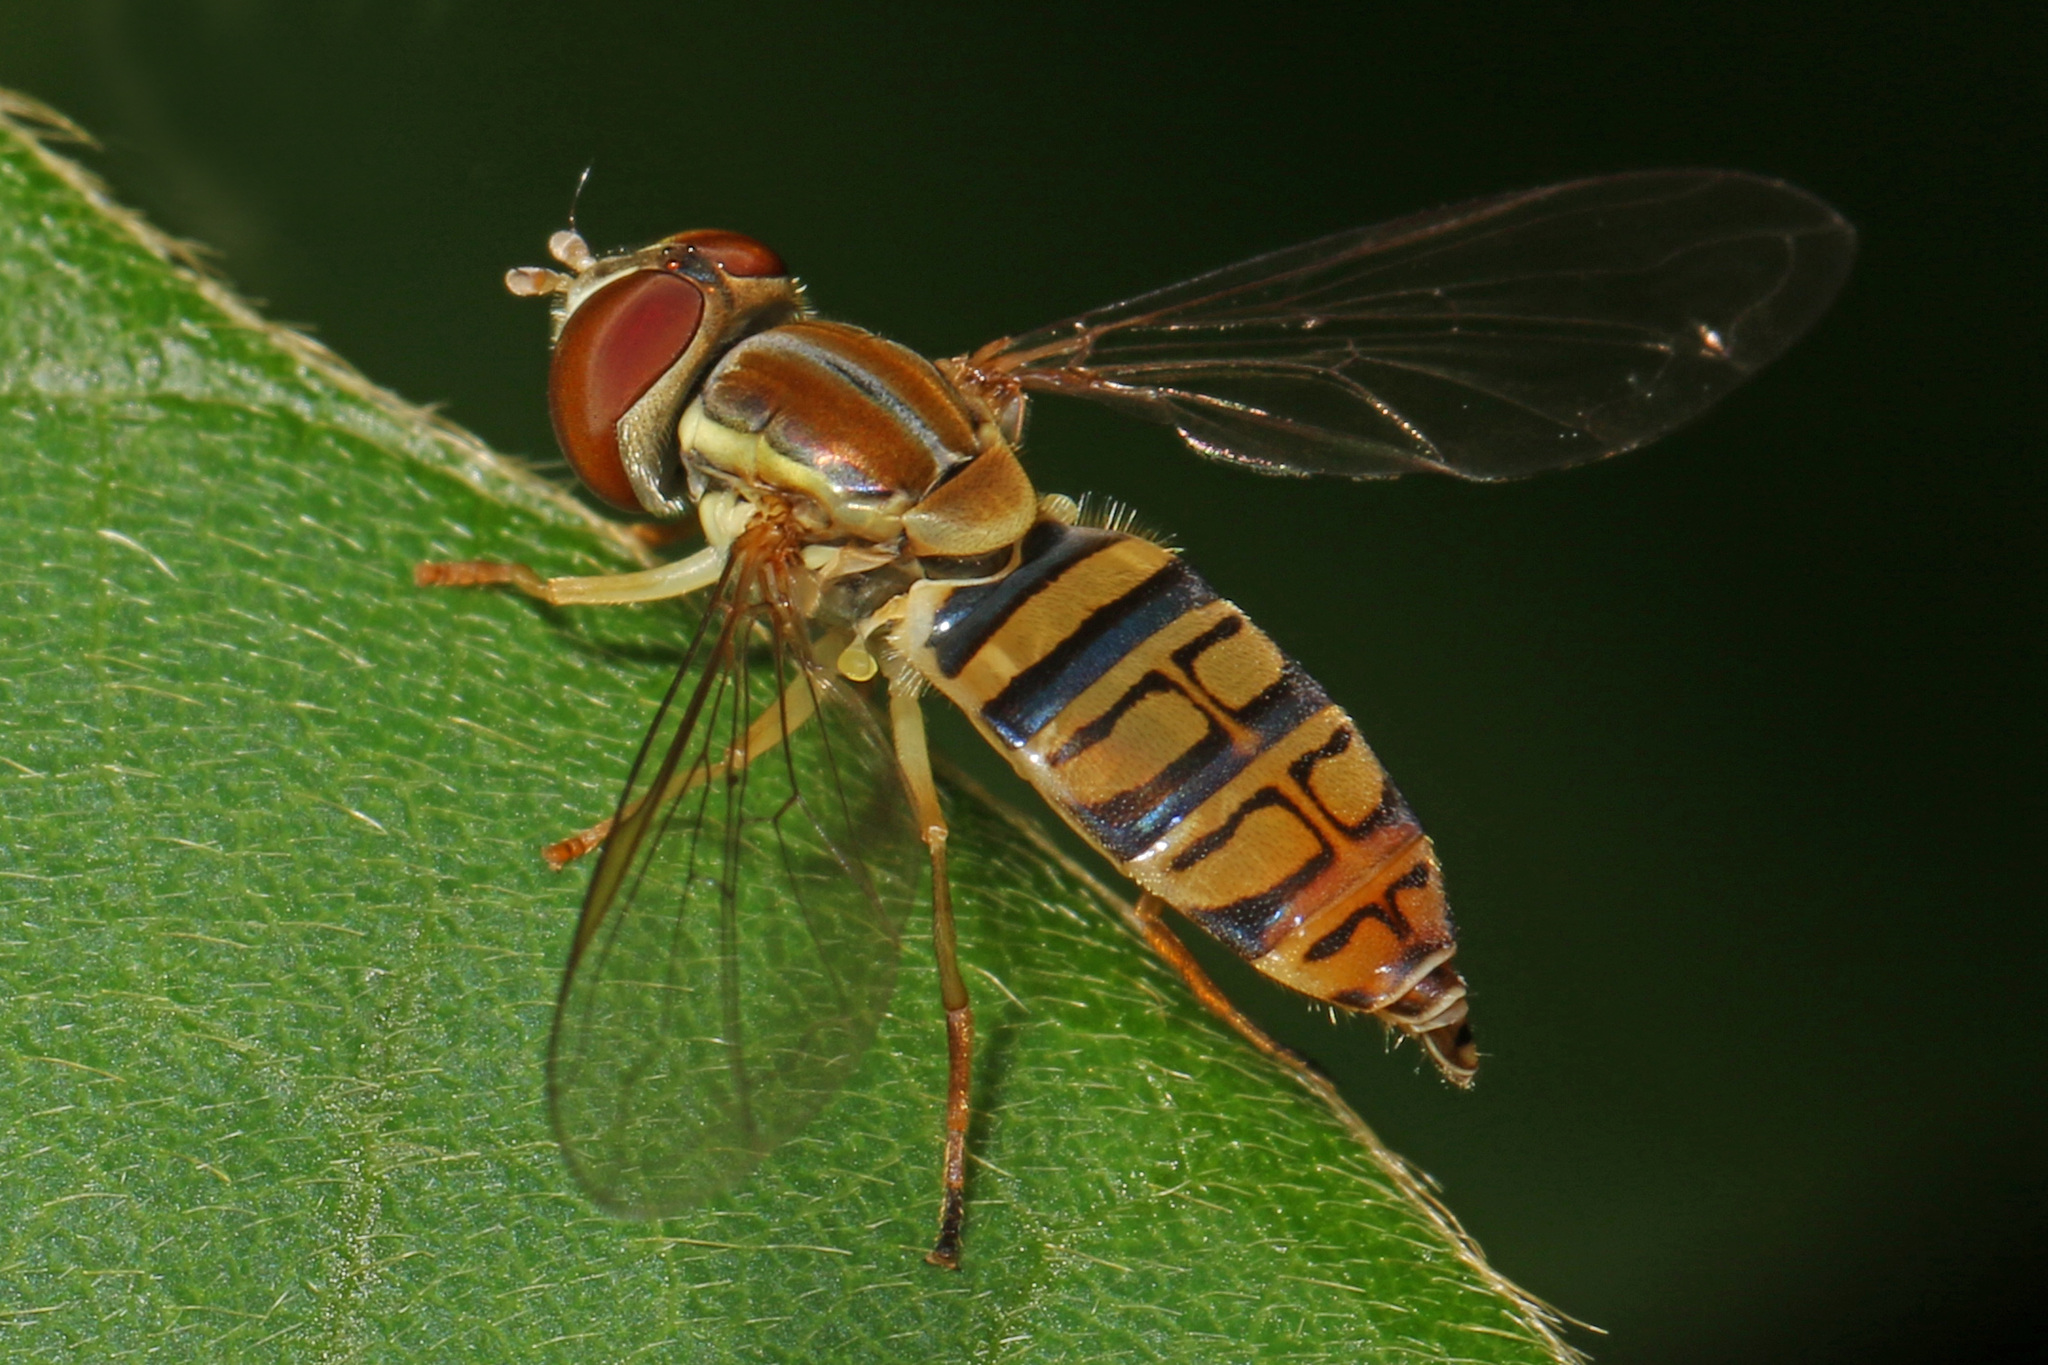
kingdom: Animalia
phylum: Arthropoda
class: Insecta
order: Diptera
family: Syrphidae
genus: Toxomerus
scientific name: Toxomerus politus
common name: Maize calligrapher
